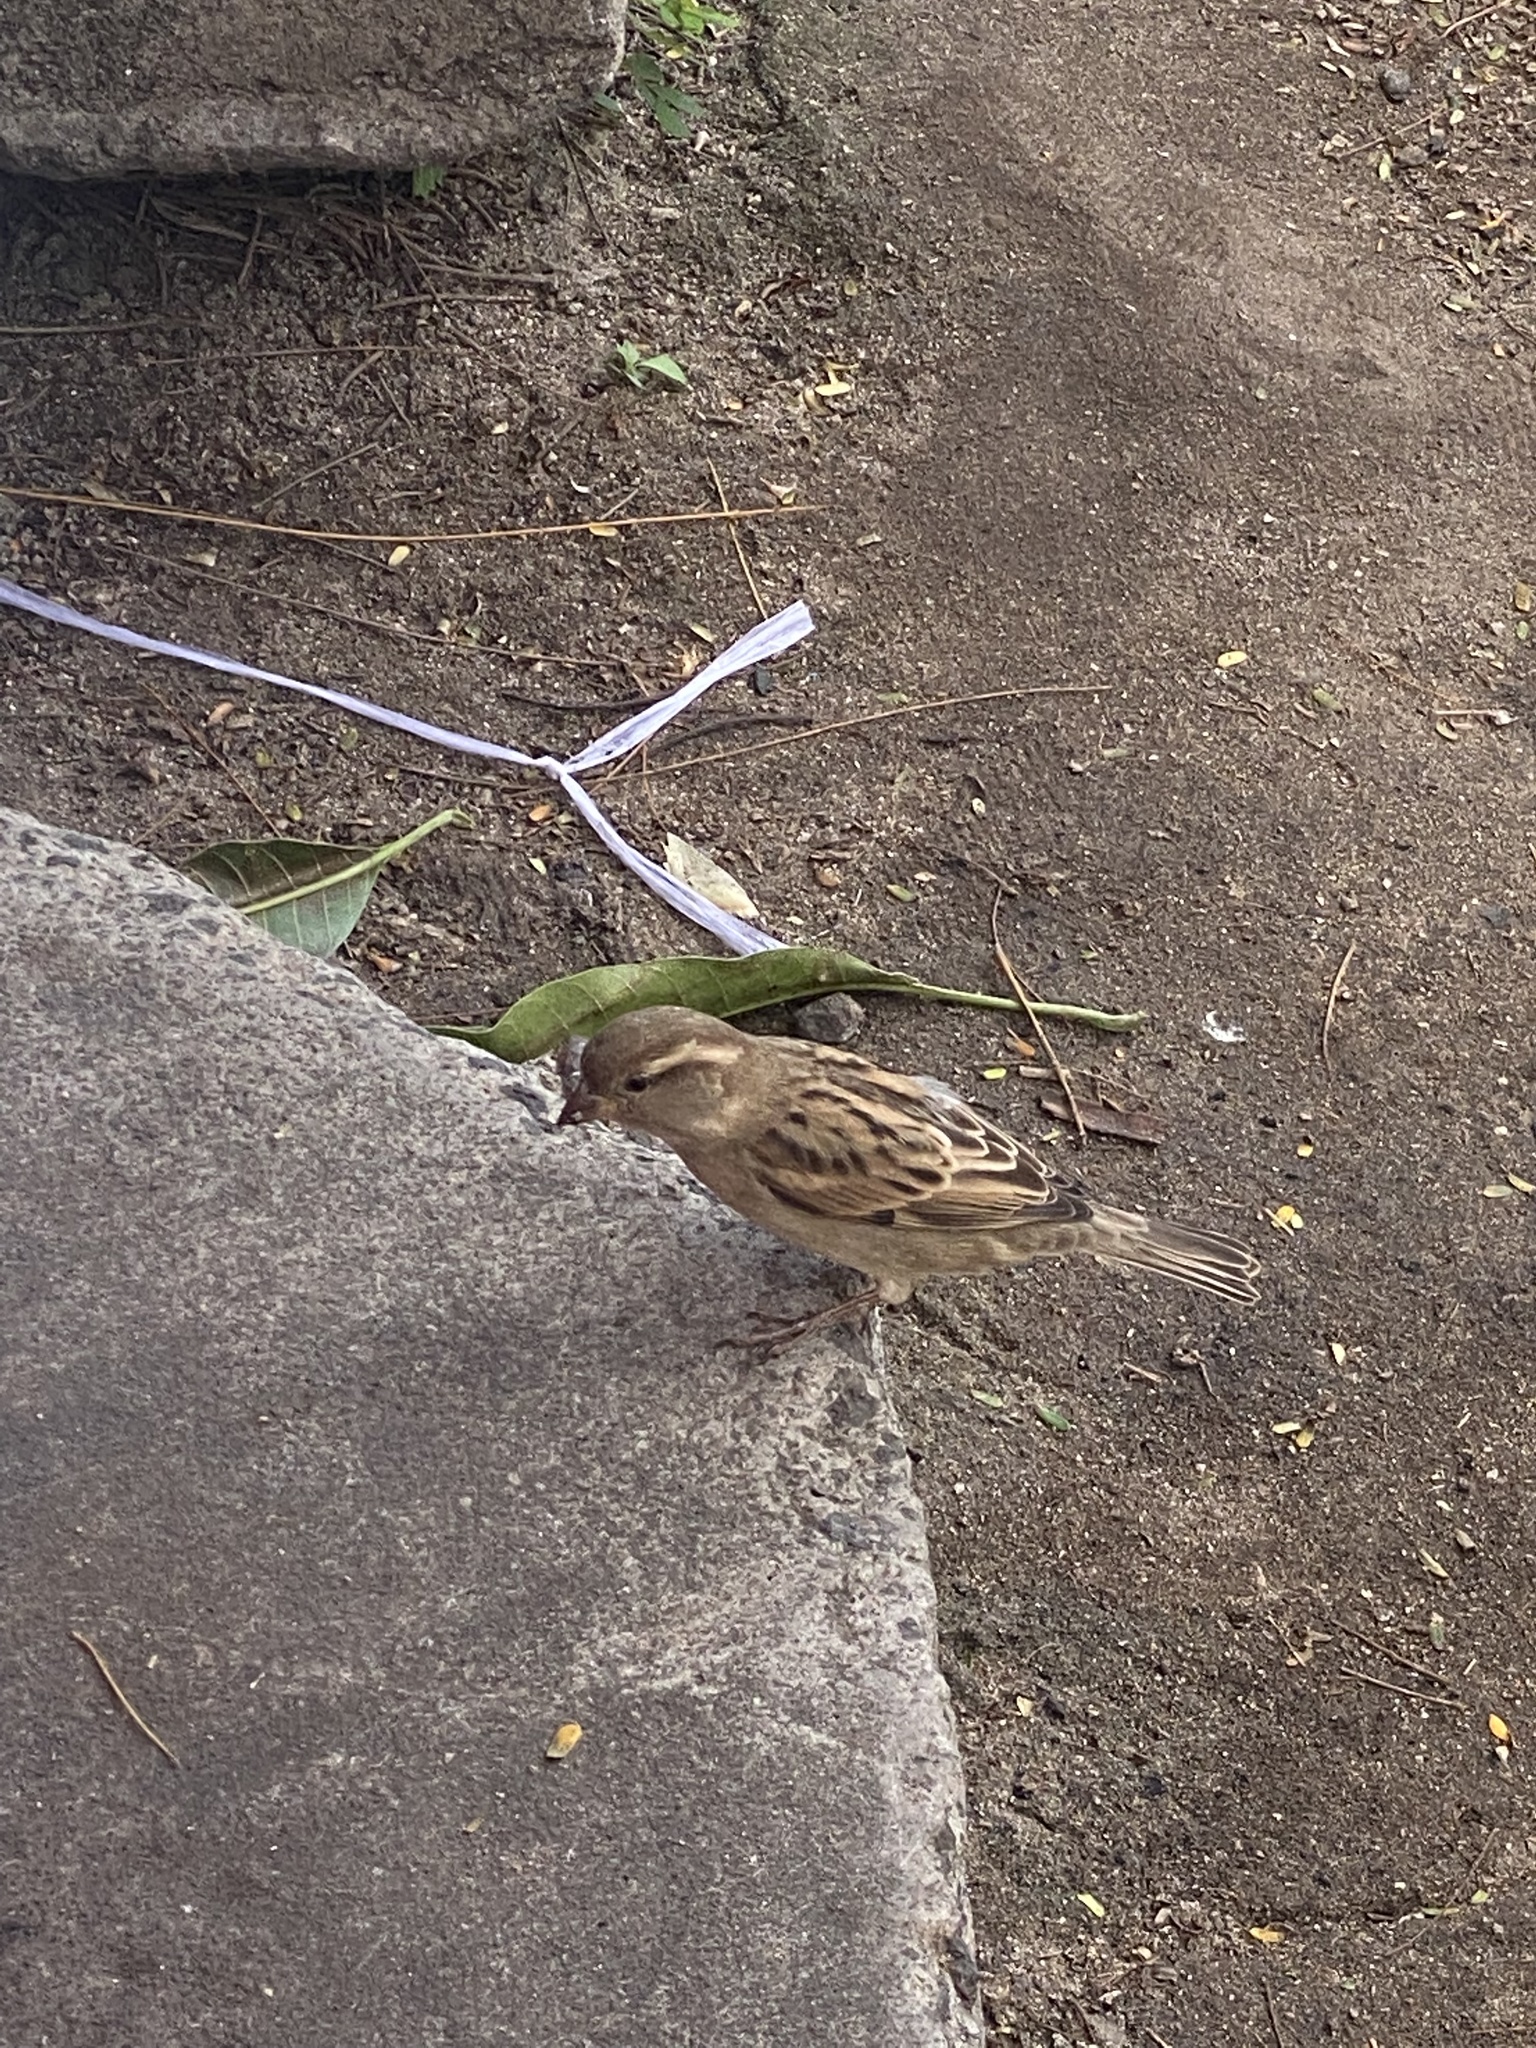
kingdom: Animalia
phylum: Chordata
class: Aves
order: Passeriformes
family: Passeridae
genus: Passer
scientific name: Passer domesticus
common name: House sparrow
